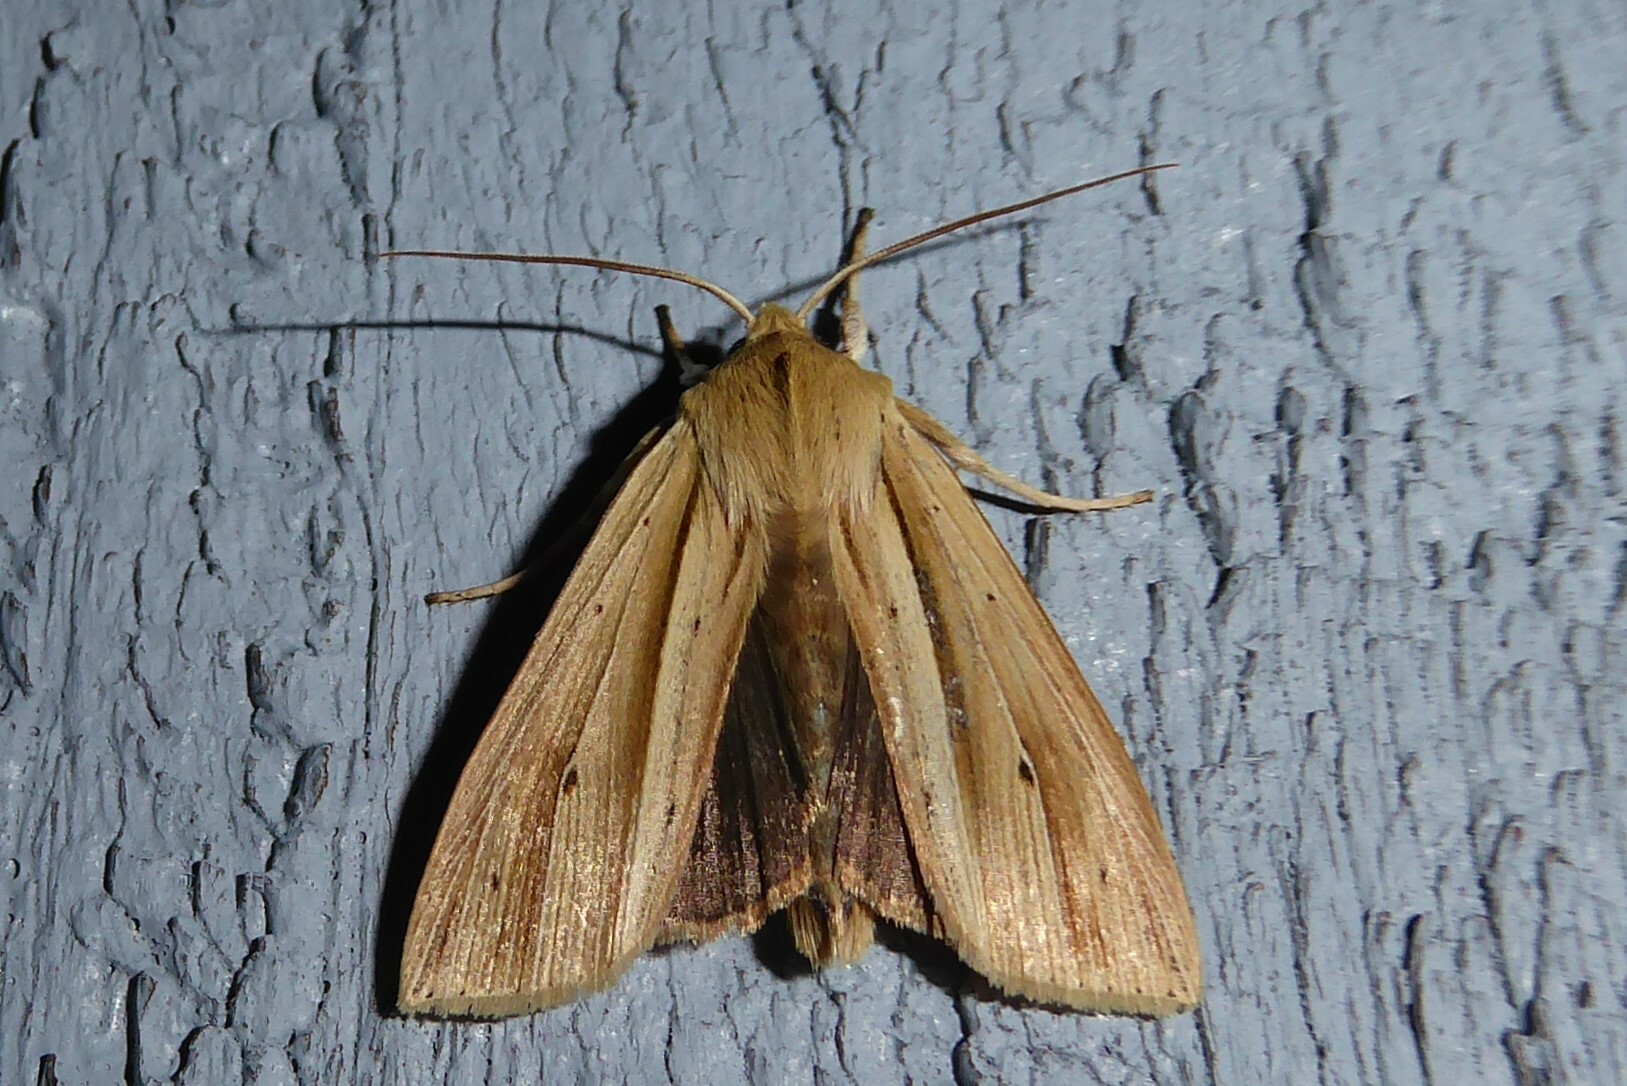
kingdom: Animalia
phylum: Arthropoda
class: Insecta
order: Lepidoptera
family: Noctuidae
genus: Ichneutica
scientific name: Ichneutica sulcana
